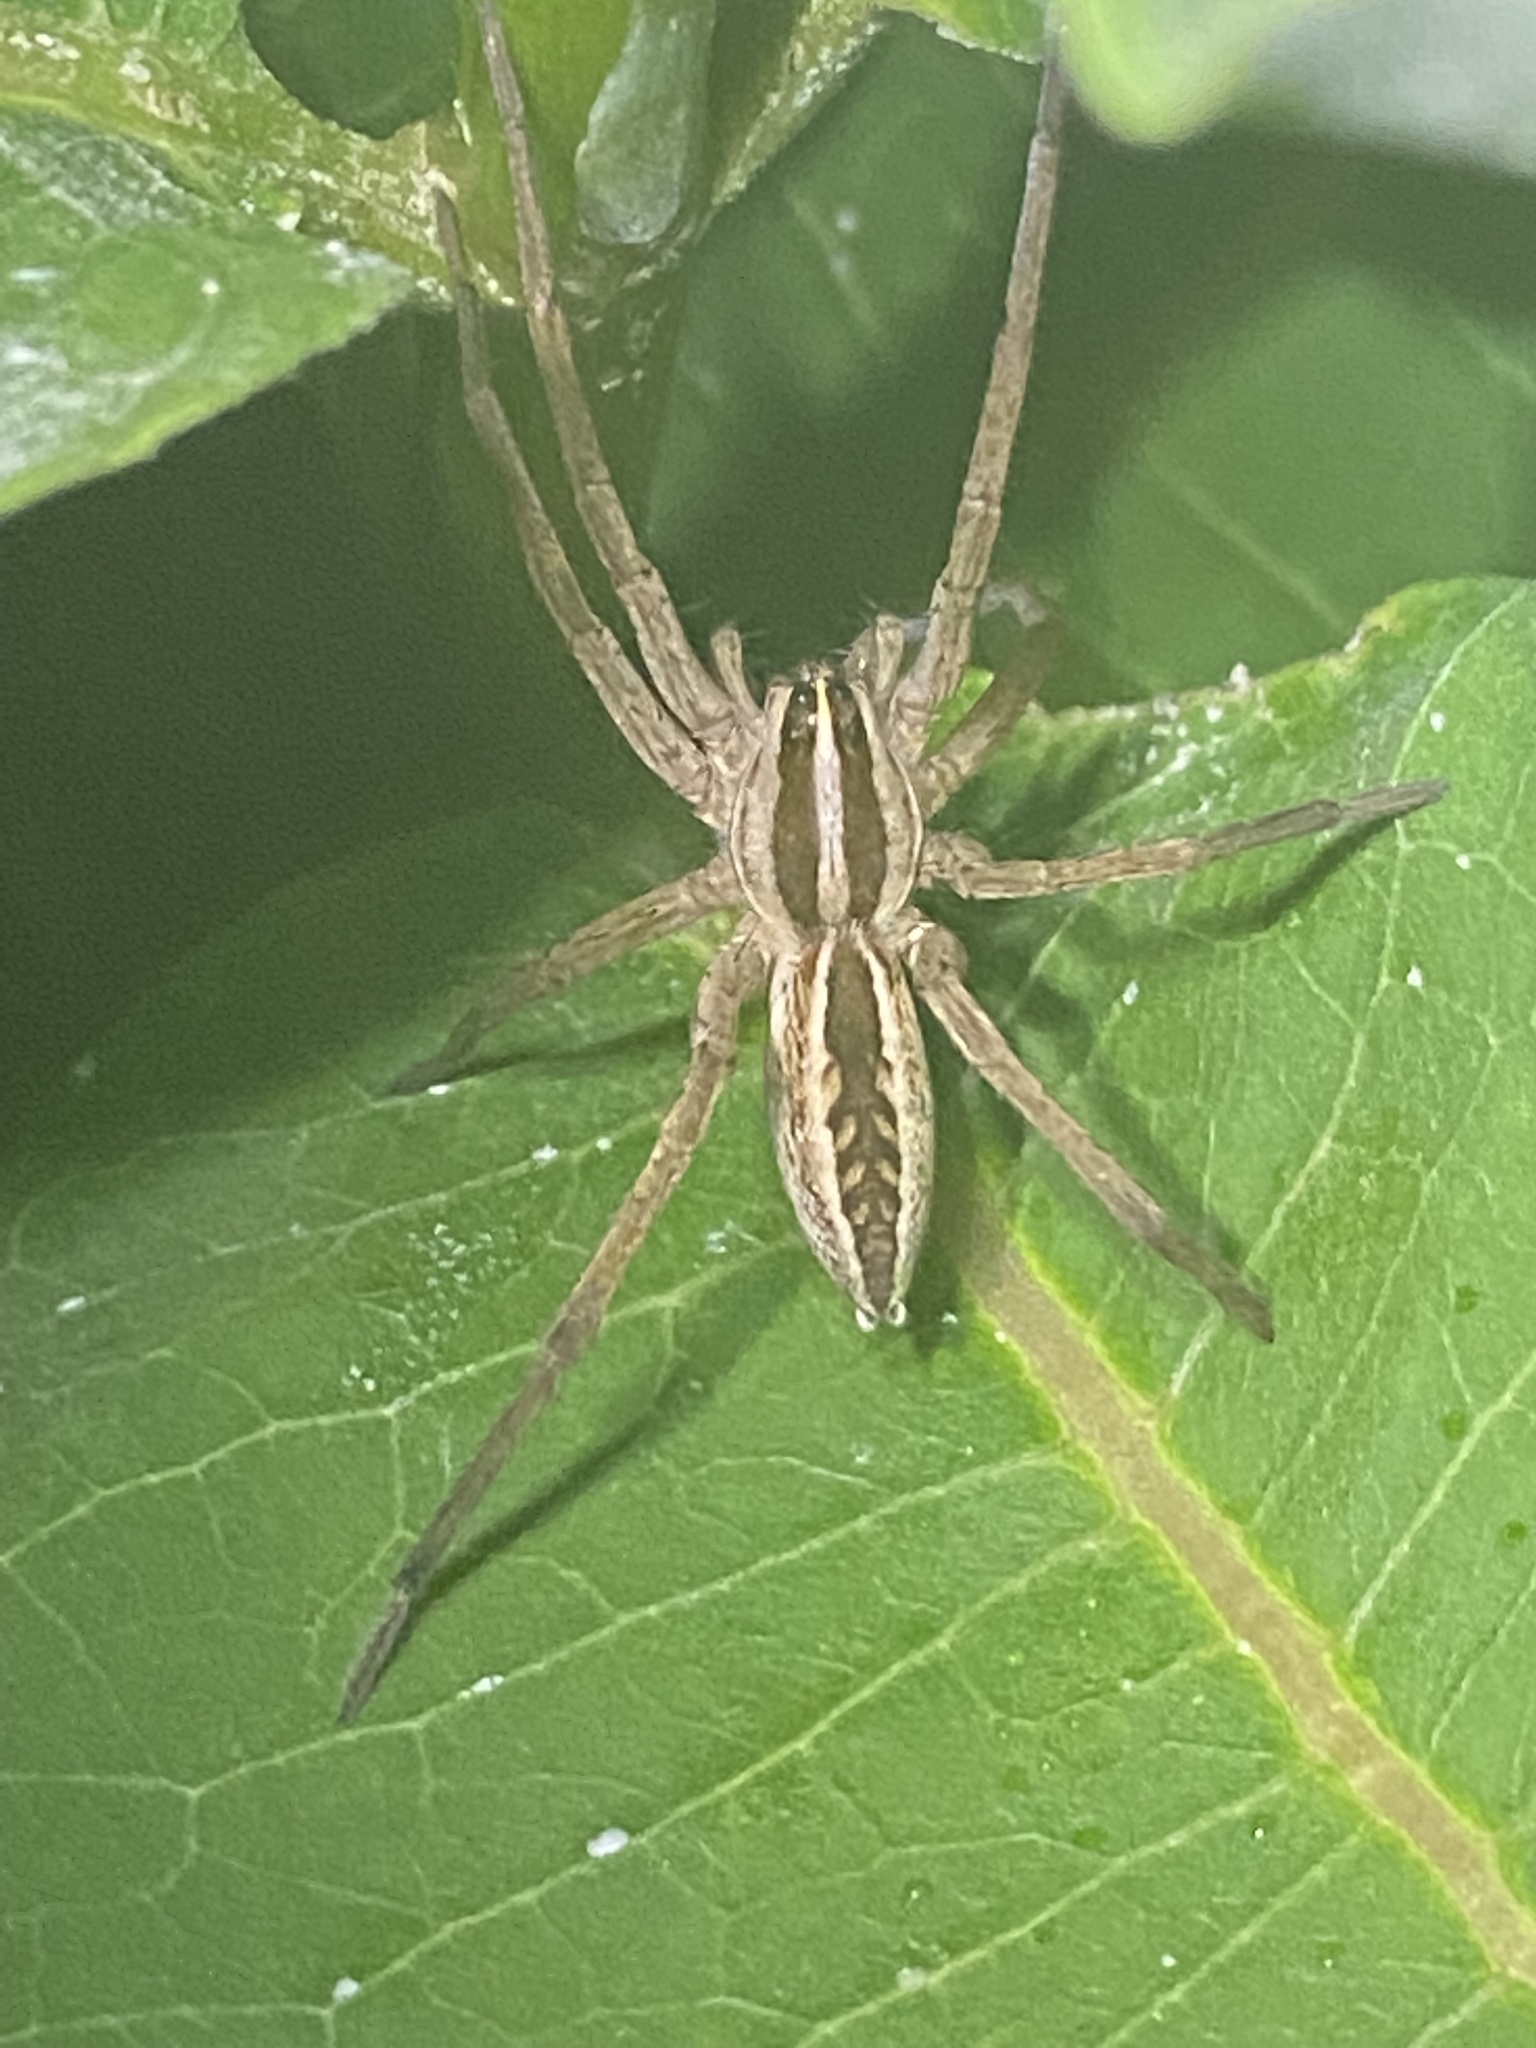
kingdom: Animalia
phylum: Arthropoda
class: Arachnida
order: Araneae
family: Lycosidae
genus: Rabidosa
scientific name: Rabidosa rabida
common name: Rabid wolf spider
